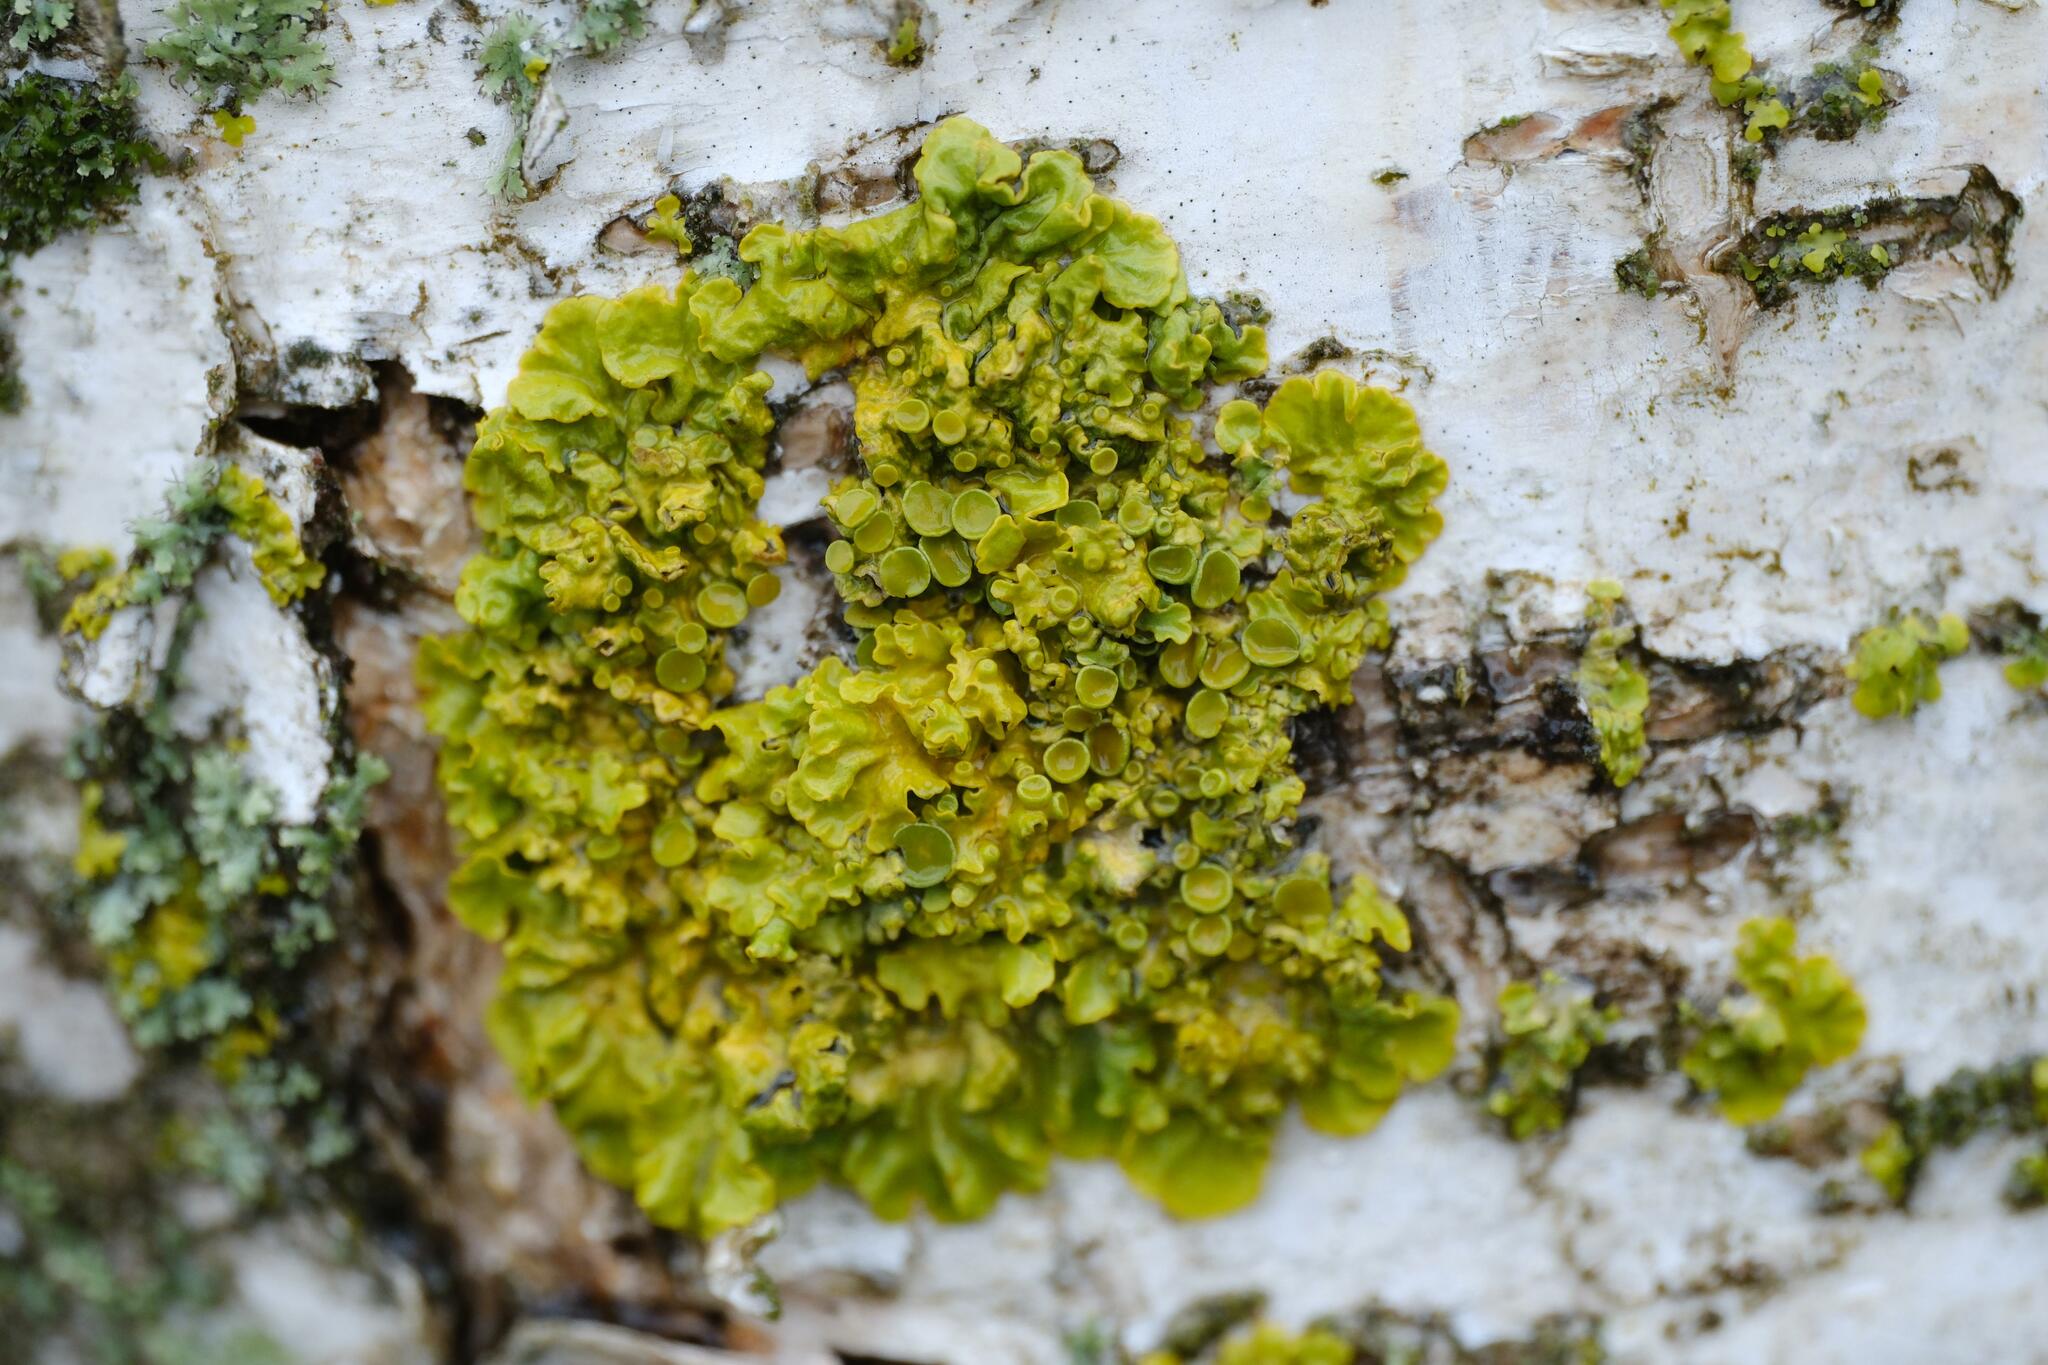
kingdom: Fungi
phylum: Ascomycota
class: Lecanoromycetes
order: Teloschistales
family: Teloschistaceae
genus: Xanthoria
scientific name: Xanthoria parietina
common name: Common orange lichen
